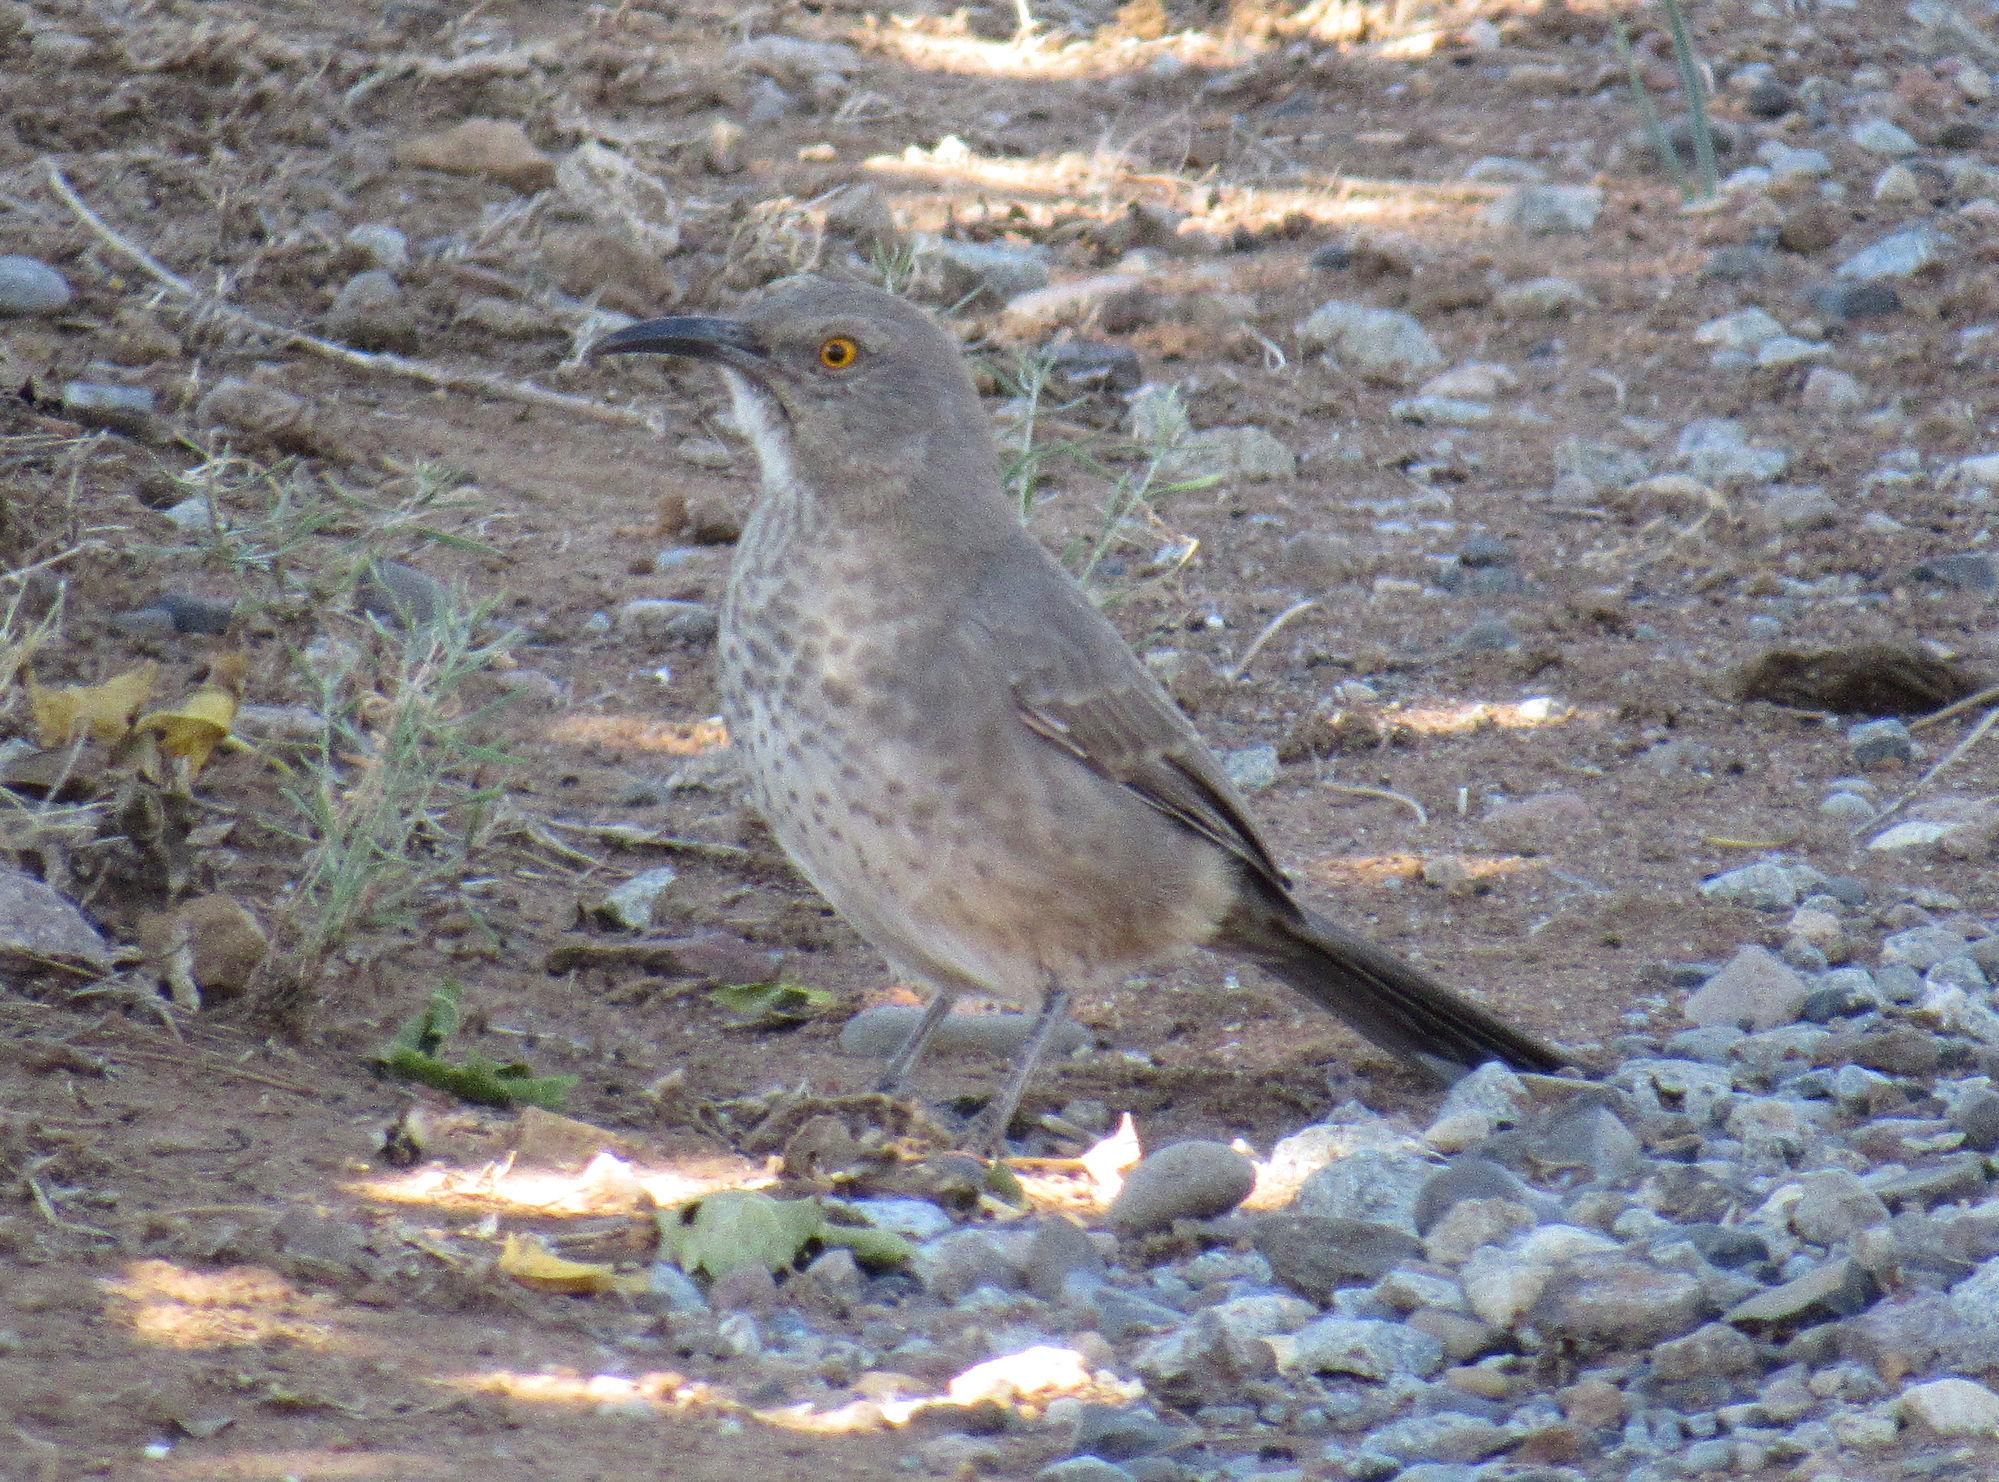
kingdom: Animalia
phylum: Chordata
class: Aves
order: Passeriformes
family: Mimidae
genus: Toxostoma
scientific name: Toxostoma curvirostre
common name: Curve-billed thrasher
